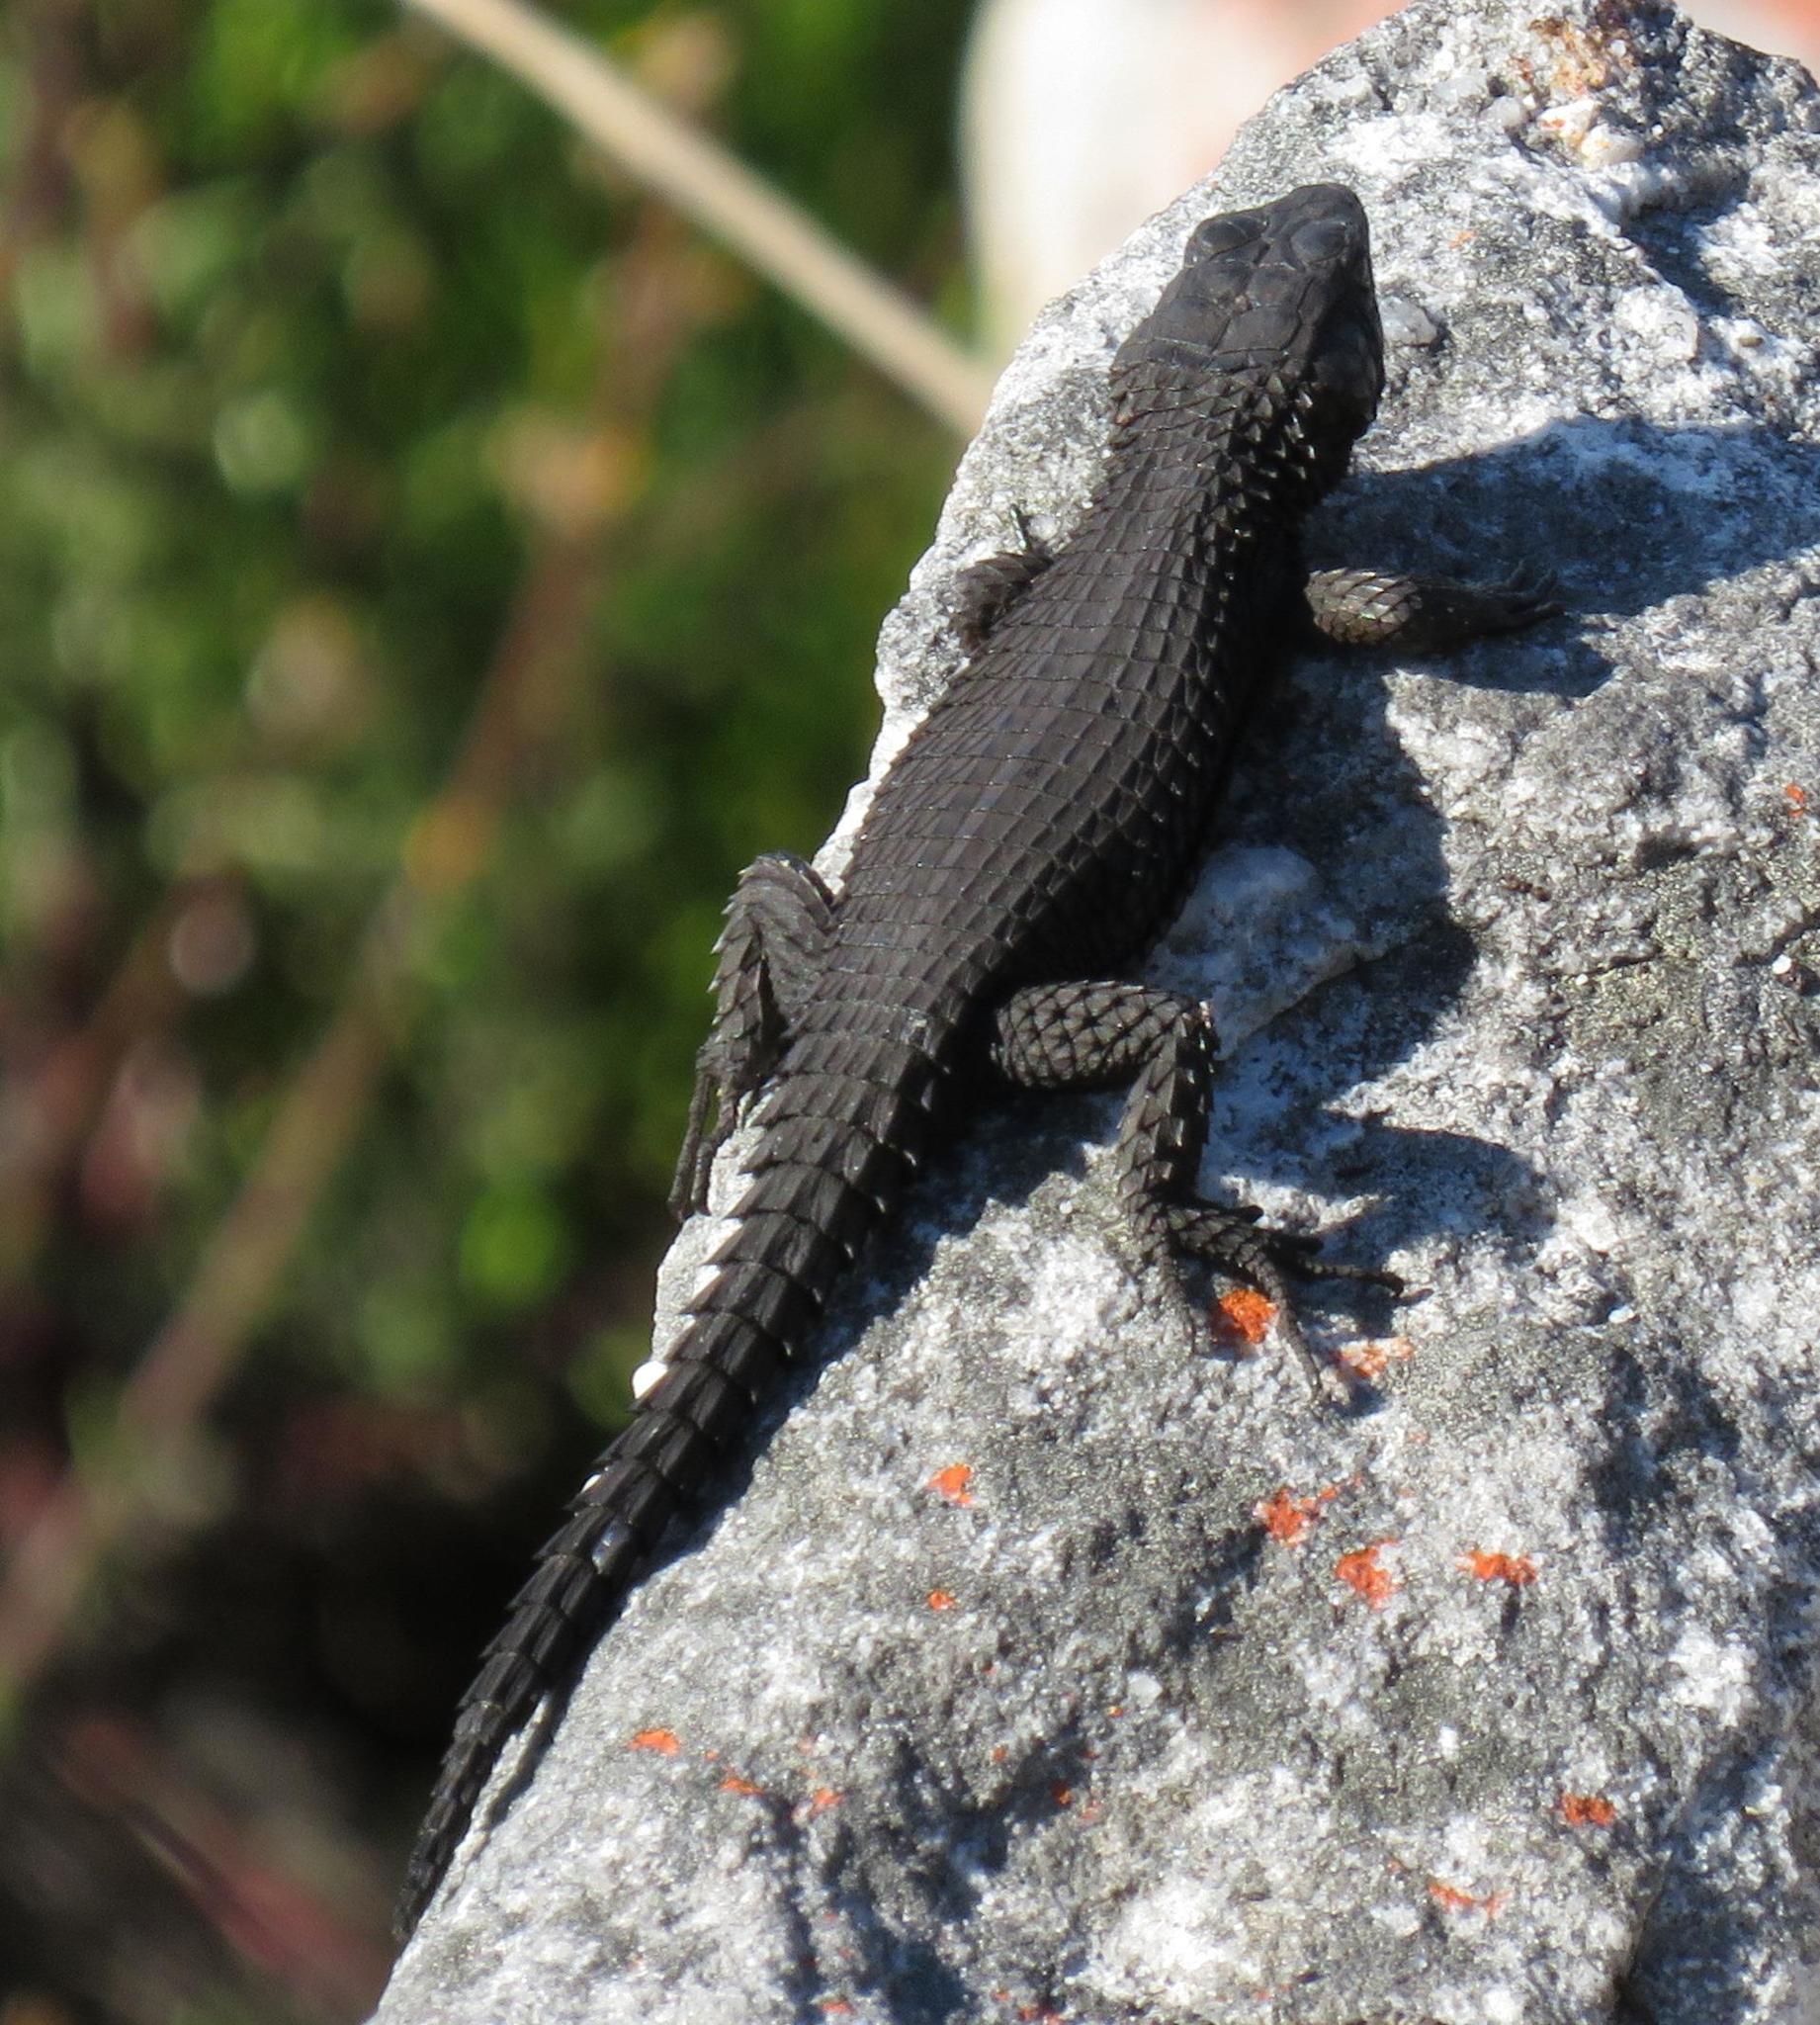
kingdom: Animalia
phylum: Chordata
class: Squamata
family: Cordylidae
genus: Cordylus
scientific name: Cordylus niger
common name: Black girdled lizard
